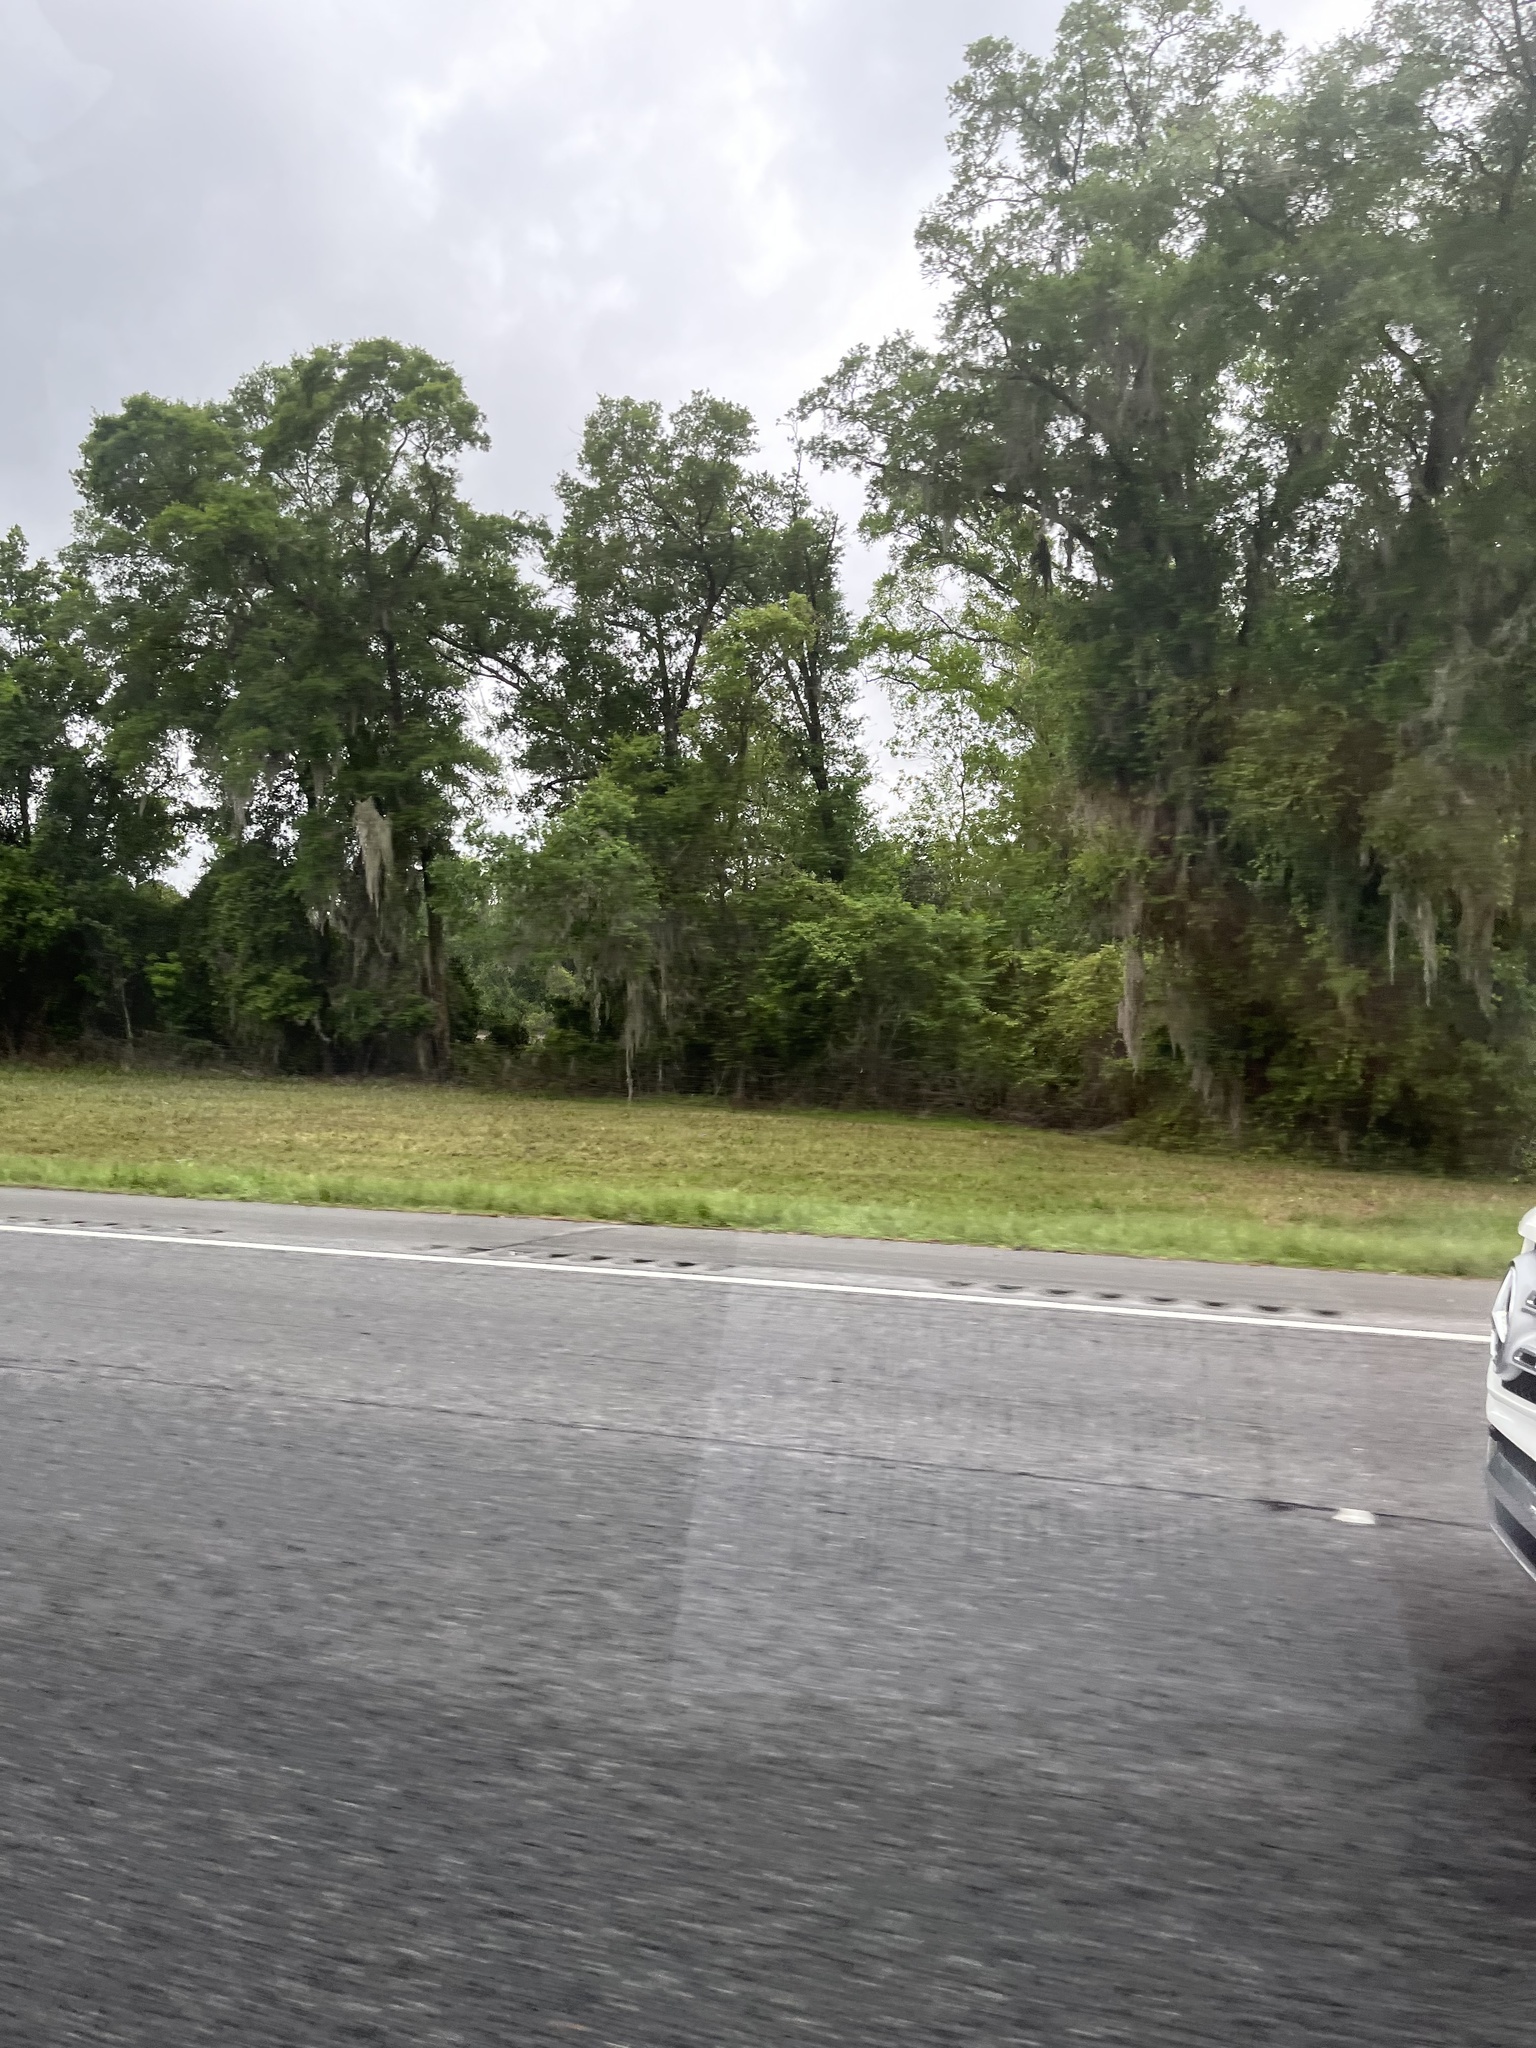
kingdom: Plantae
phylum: Tracheophyta
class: Liliopsida
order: Poales
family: Bromeliaceae
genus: Tillandsia
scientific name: Tillandsia usneoides
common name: Spanish moss
